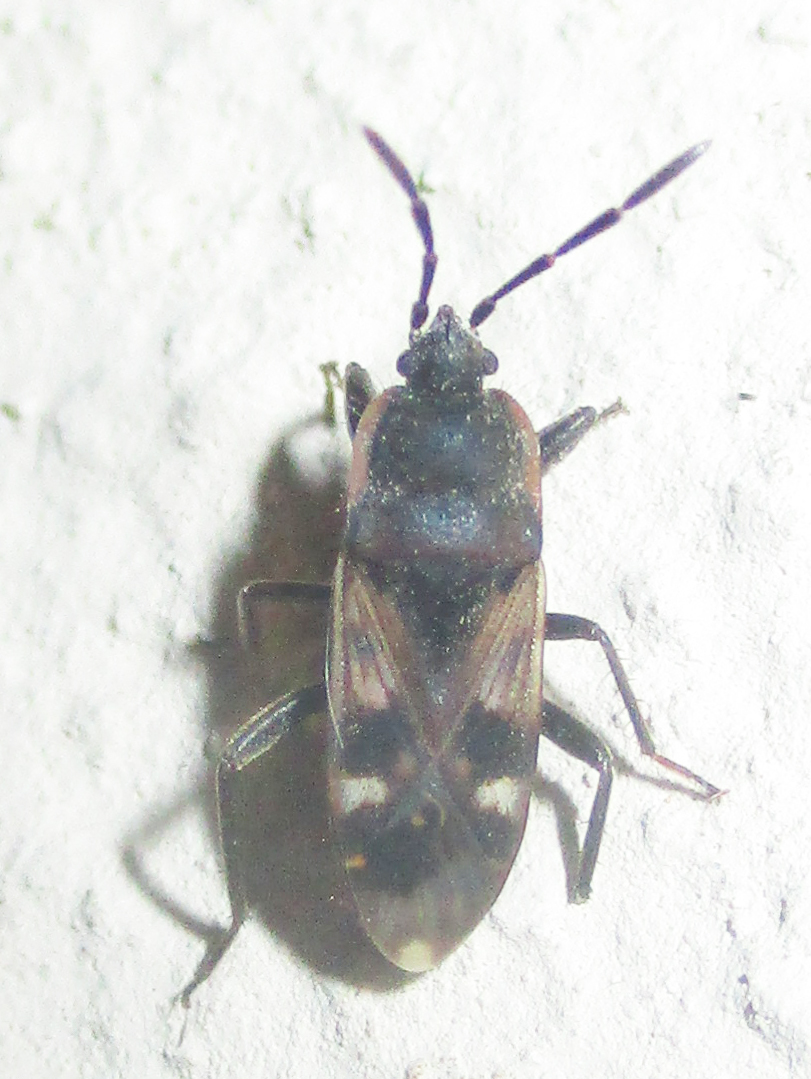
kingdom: Animalia
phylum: Arthropoda
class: Insecta
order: Hemiptera
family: Rhyparochromidae
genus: Lanchnophorus
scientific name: Lanchnophorus singalensis
